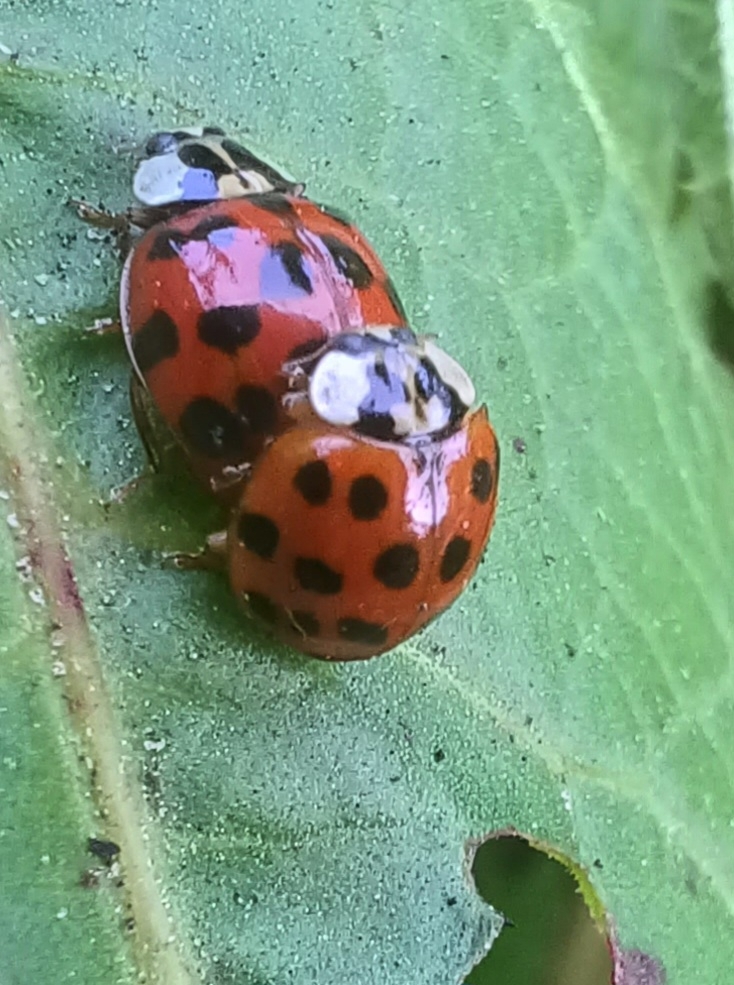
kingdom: Animalia
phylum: Arthropoda
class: Insecta
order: Coleoptera
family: Coccinellidae
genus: Harmonia
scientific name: Harmonia axyridis
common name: Harlequin ladybird
